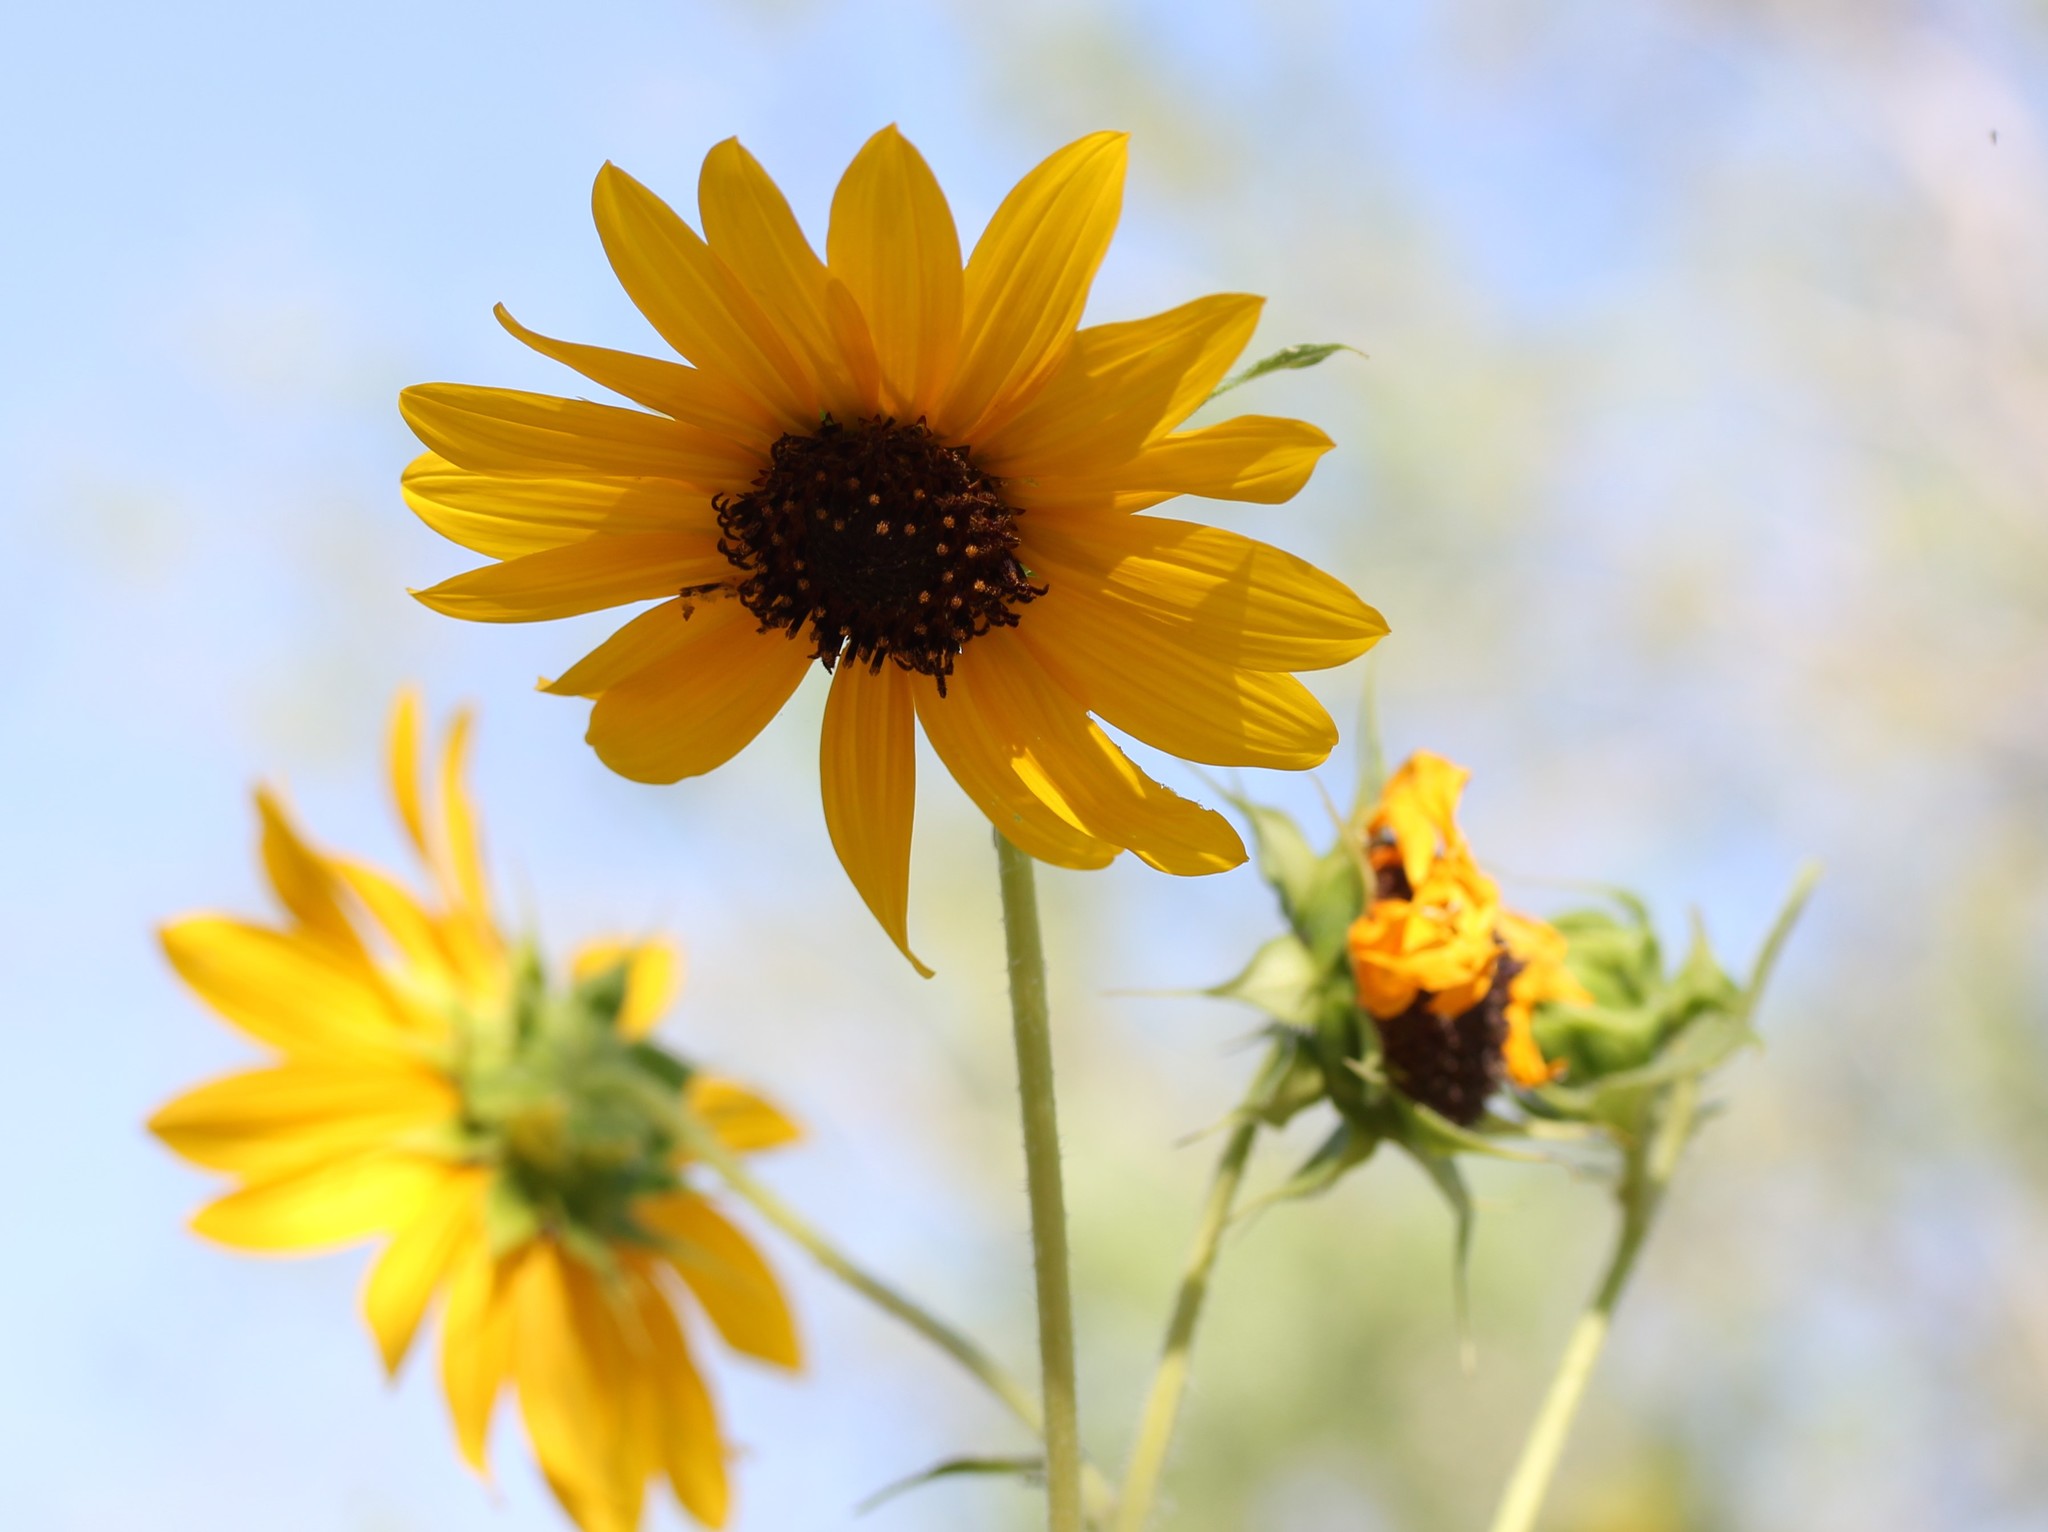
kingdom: Plantae
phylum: Tracheophyta
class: Magnoliopsida
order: Asterales
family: Asteraceae
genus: Helianthus
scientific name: Helianthus annuus
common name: Sunflower
